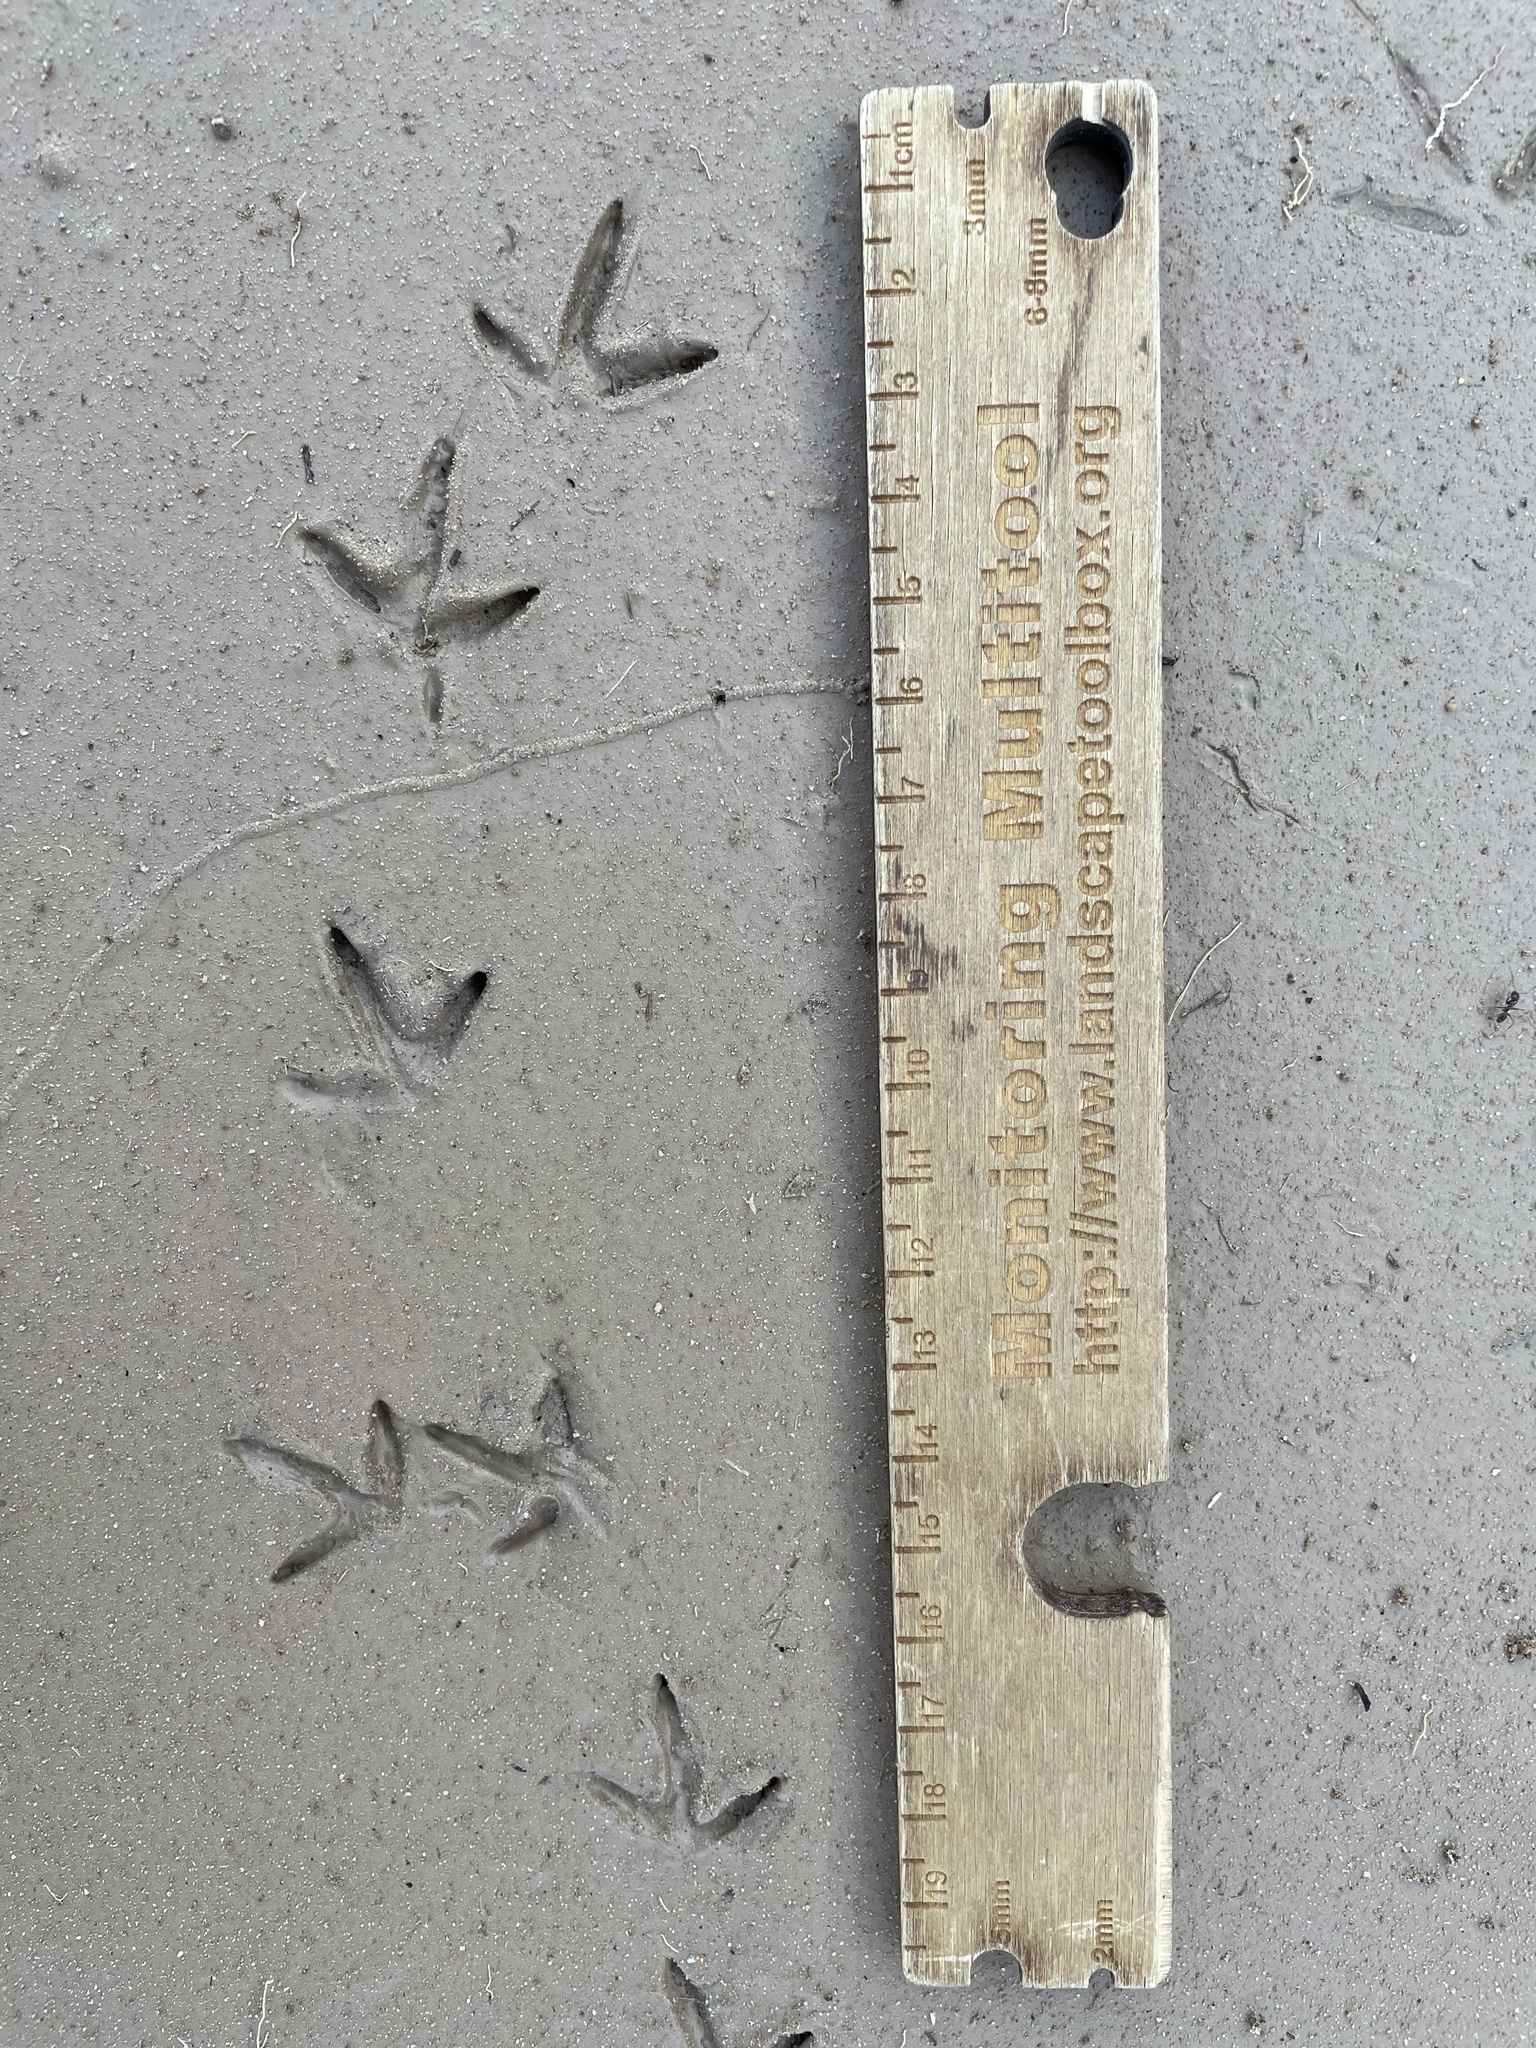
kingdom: Animalia
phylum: Chordata
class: Aves
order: Charadriiformes
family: Charadriidae
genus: Charadrius
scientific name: Charadrius vociferus
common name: Killdeer
